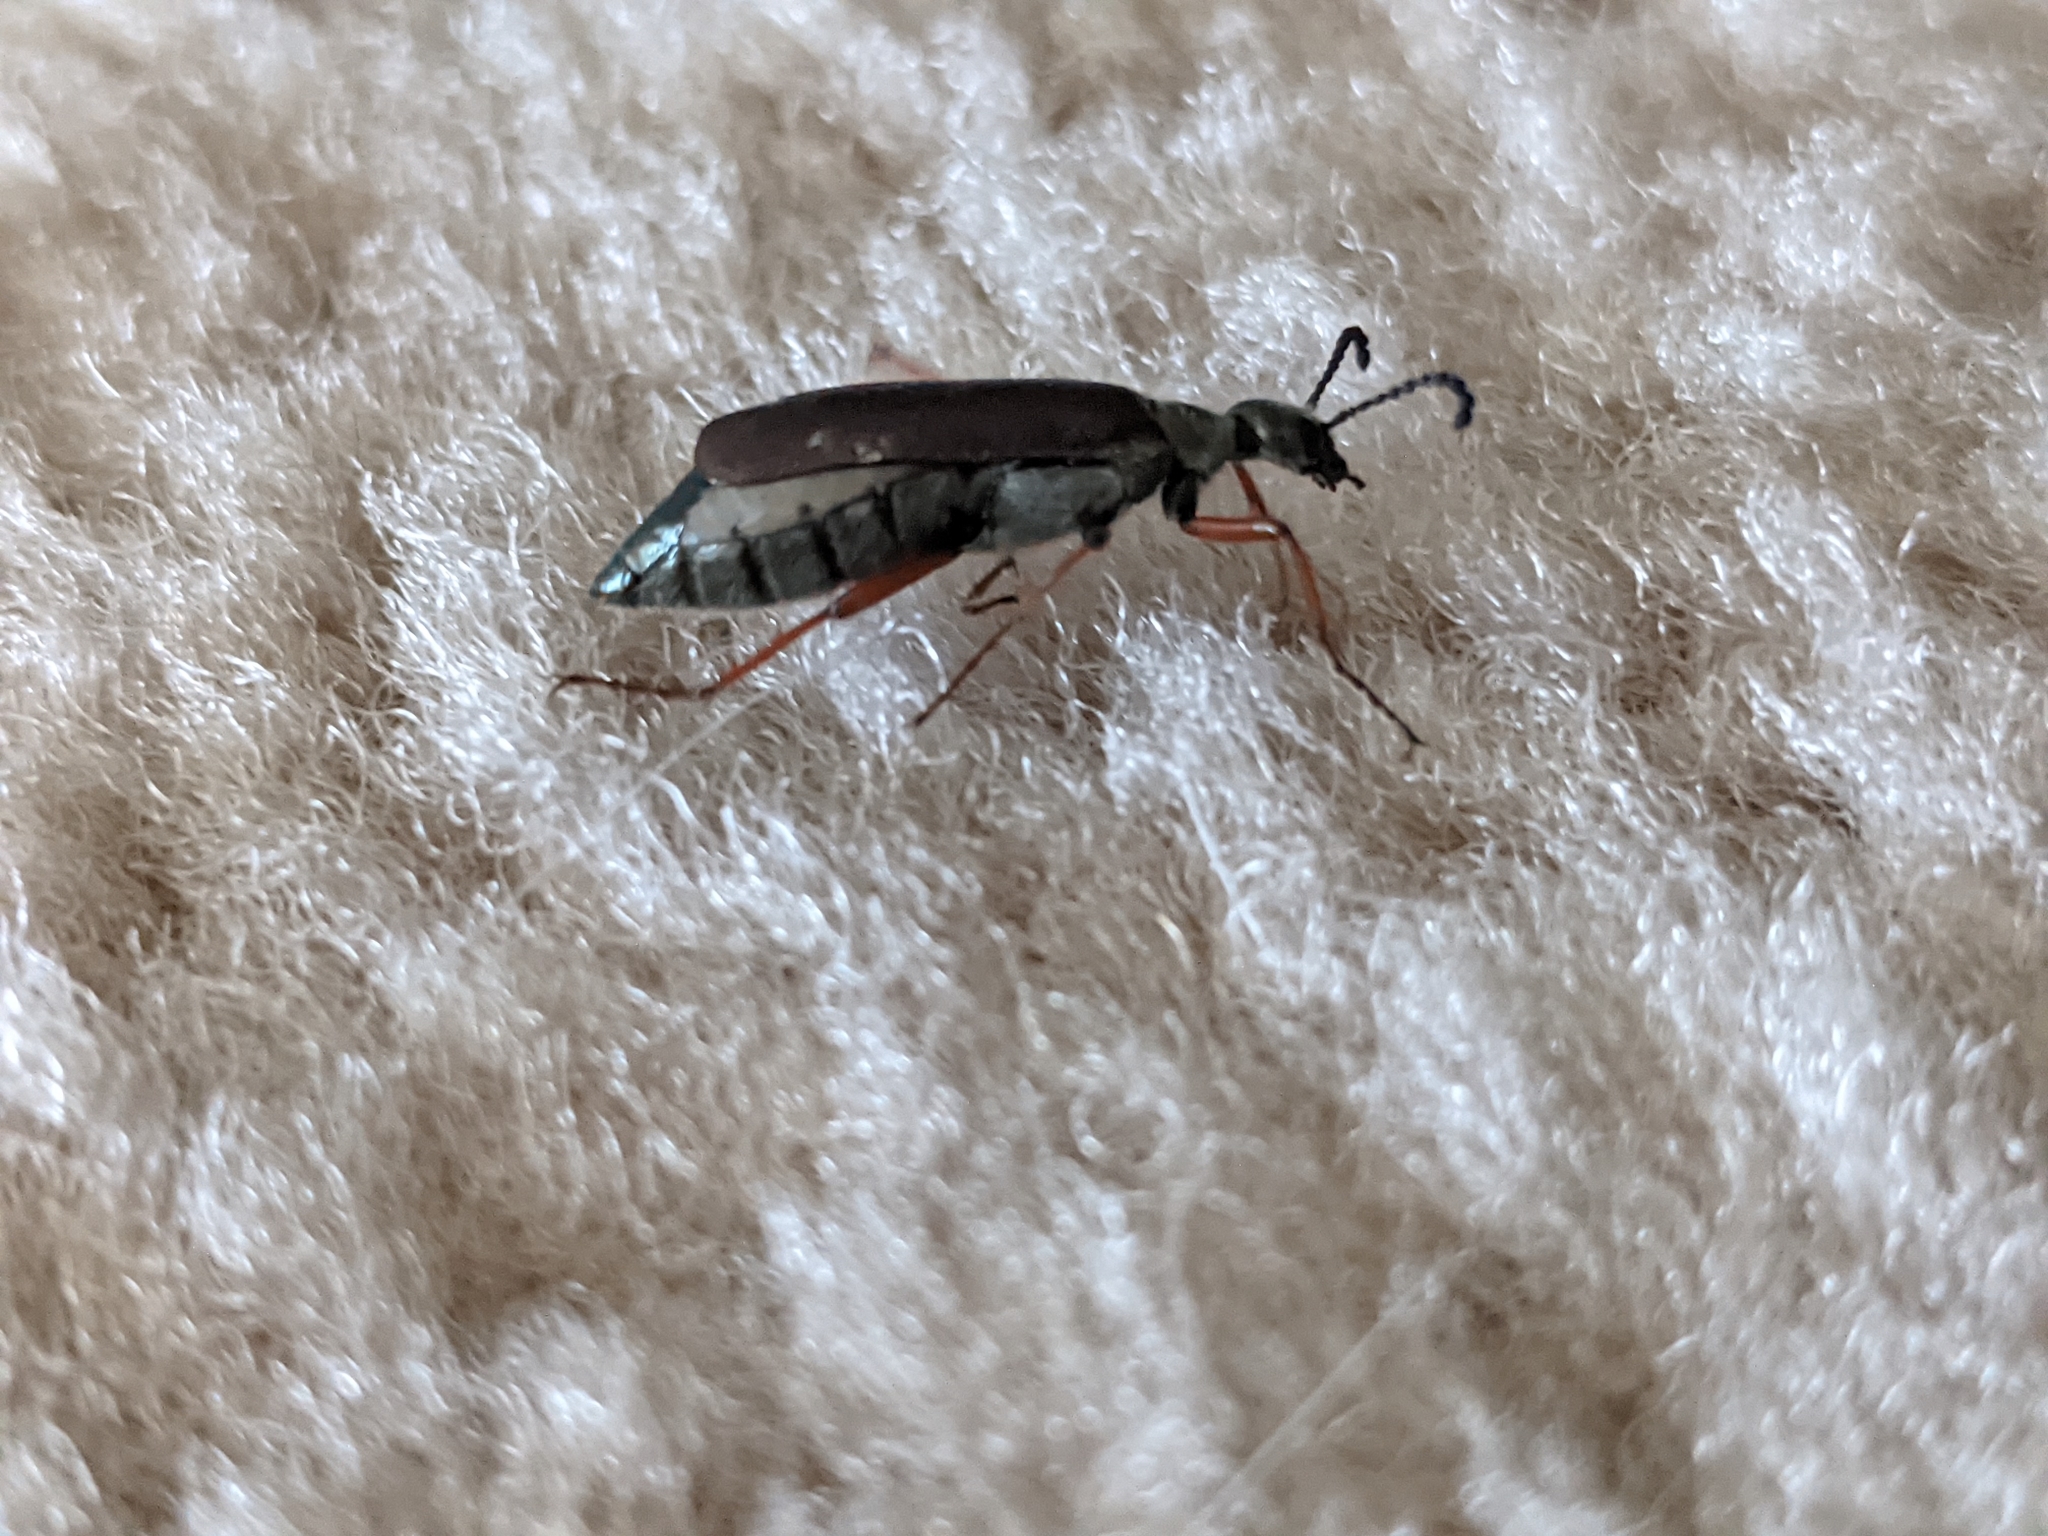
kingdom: Animalia
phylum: Arthropoda
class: Insecta
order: Coleoptera
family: Meloidae
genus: Lytta
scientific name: Lytta aenea
